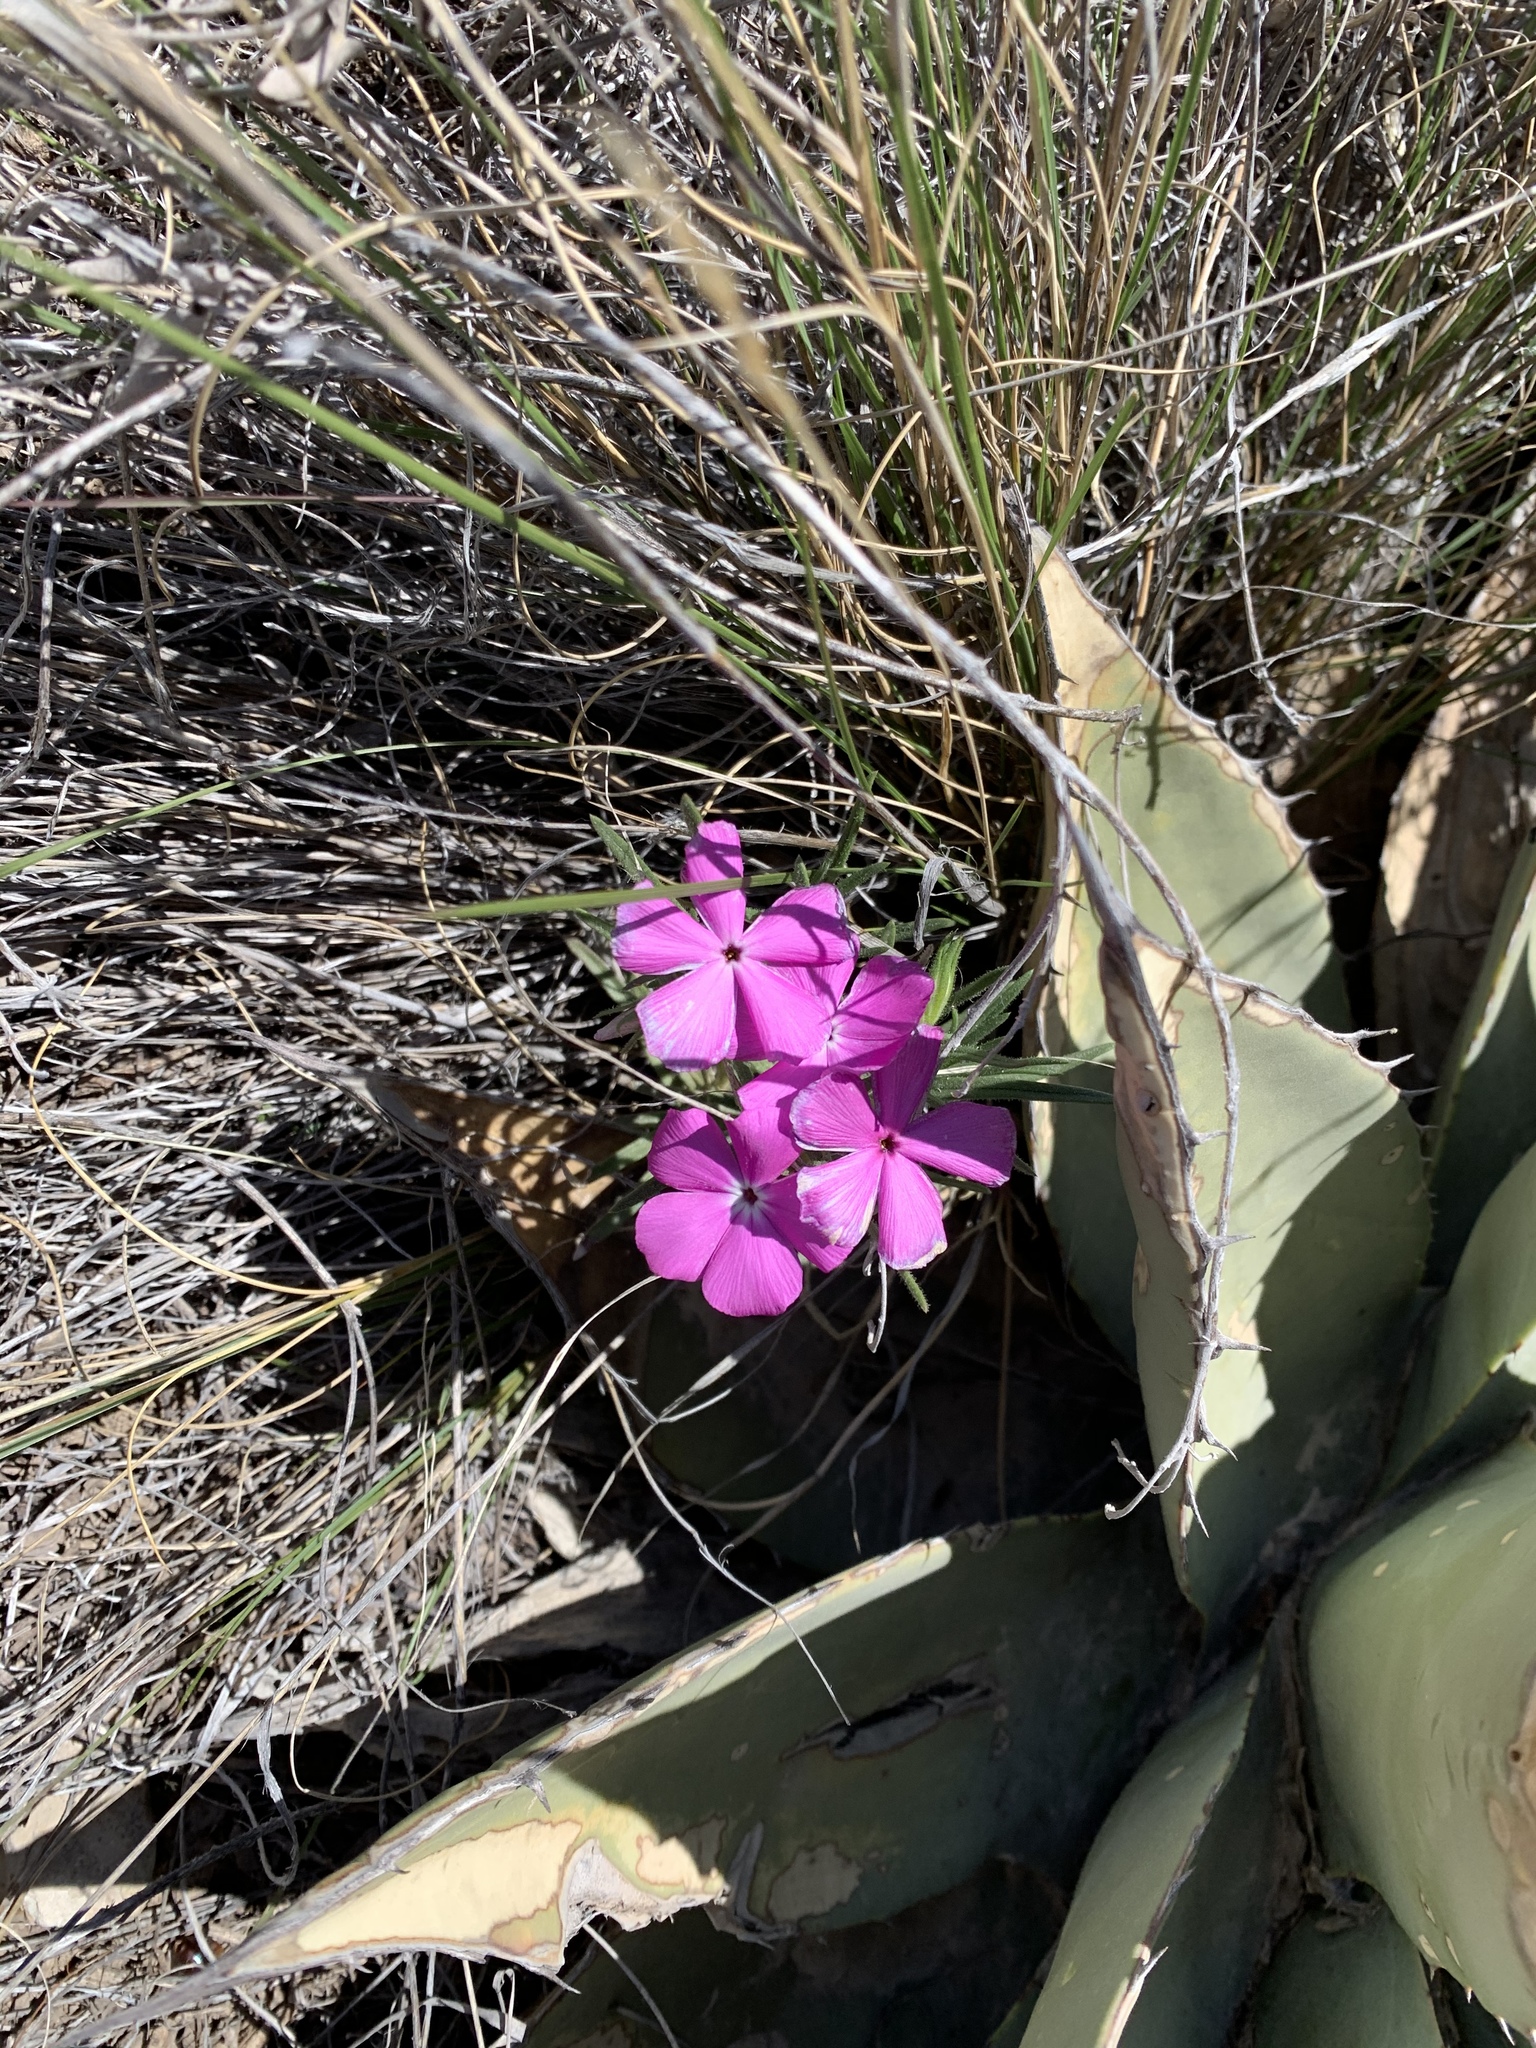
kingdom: Plantae
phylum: Tracheophyta
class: Magnoliopsida
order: Ericales
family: Polemoniaceae
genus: Phlox
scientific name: Phlox nana
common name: Santa fe phlox
